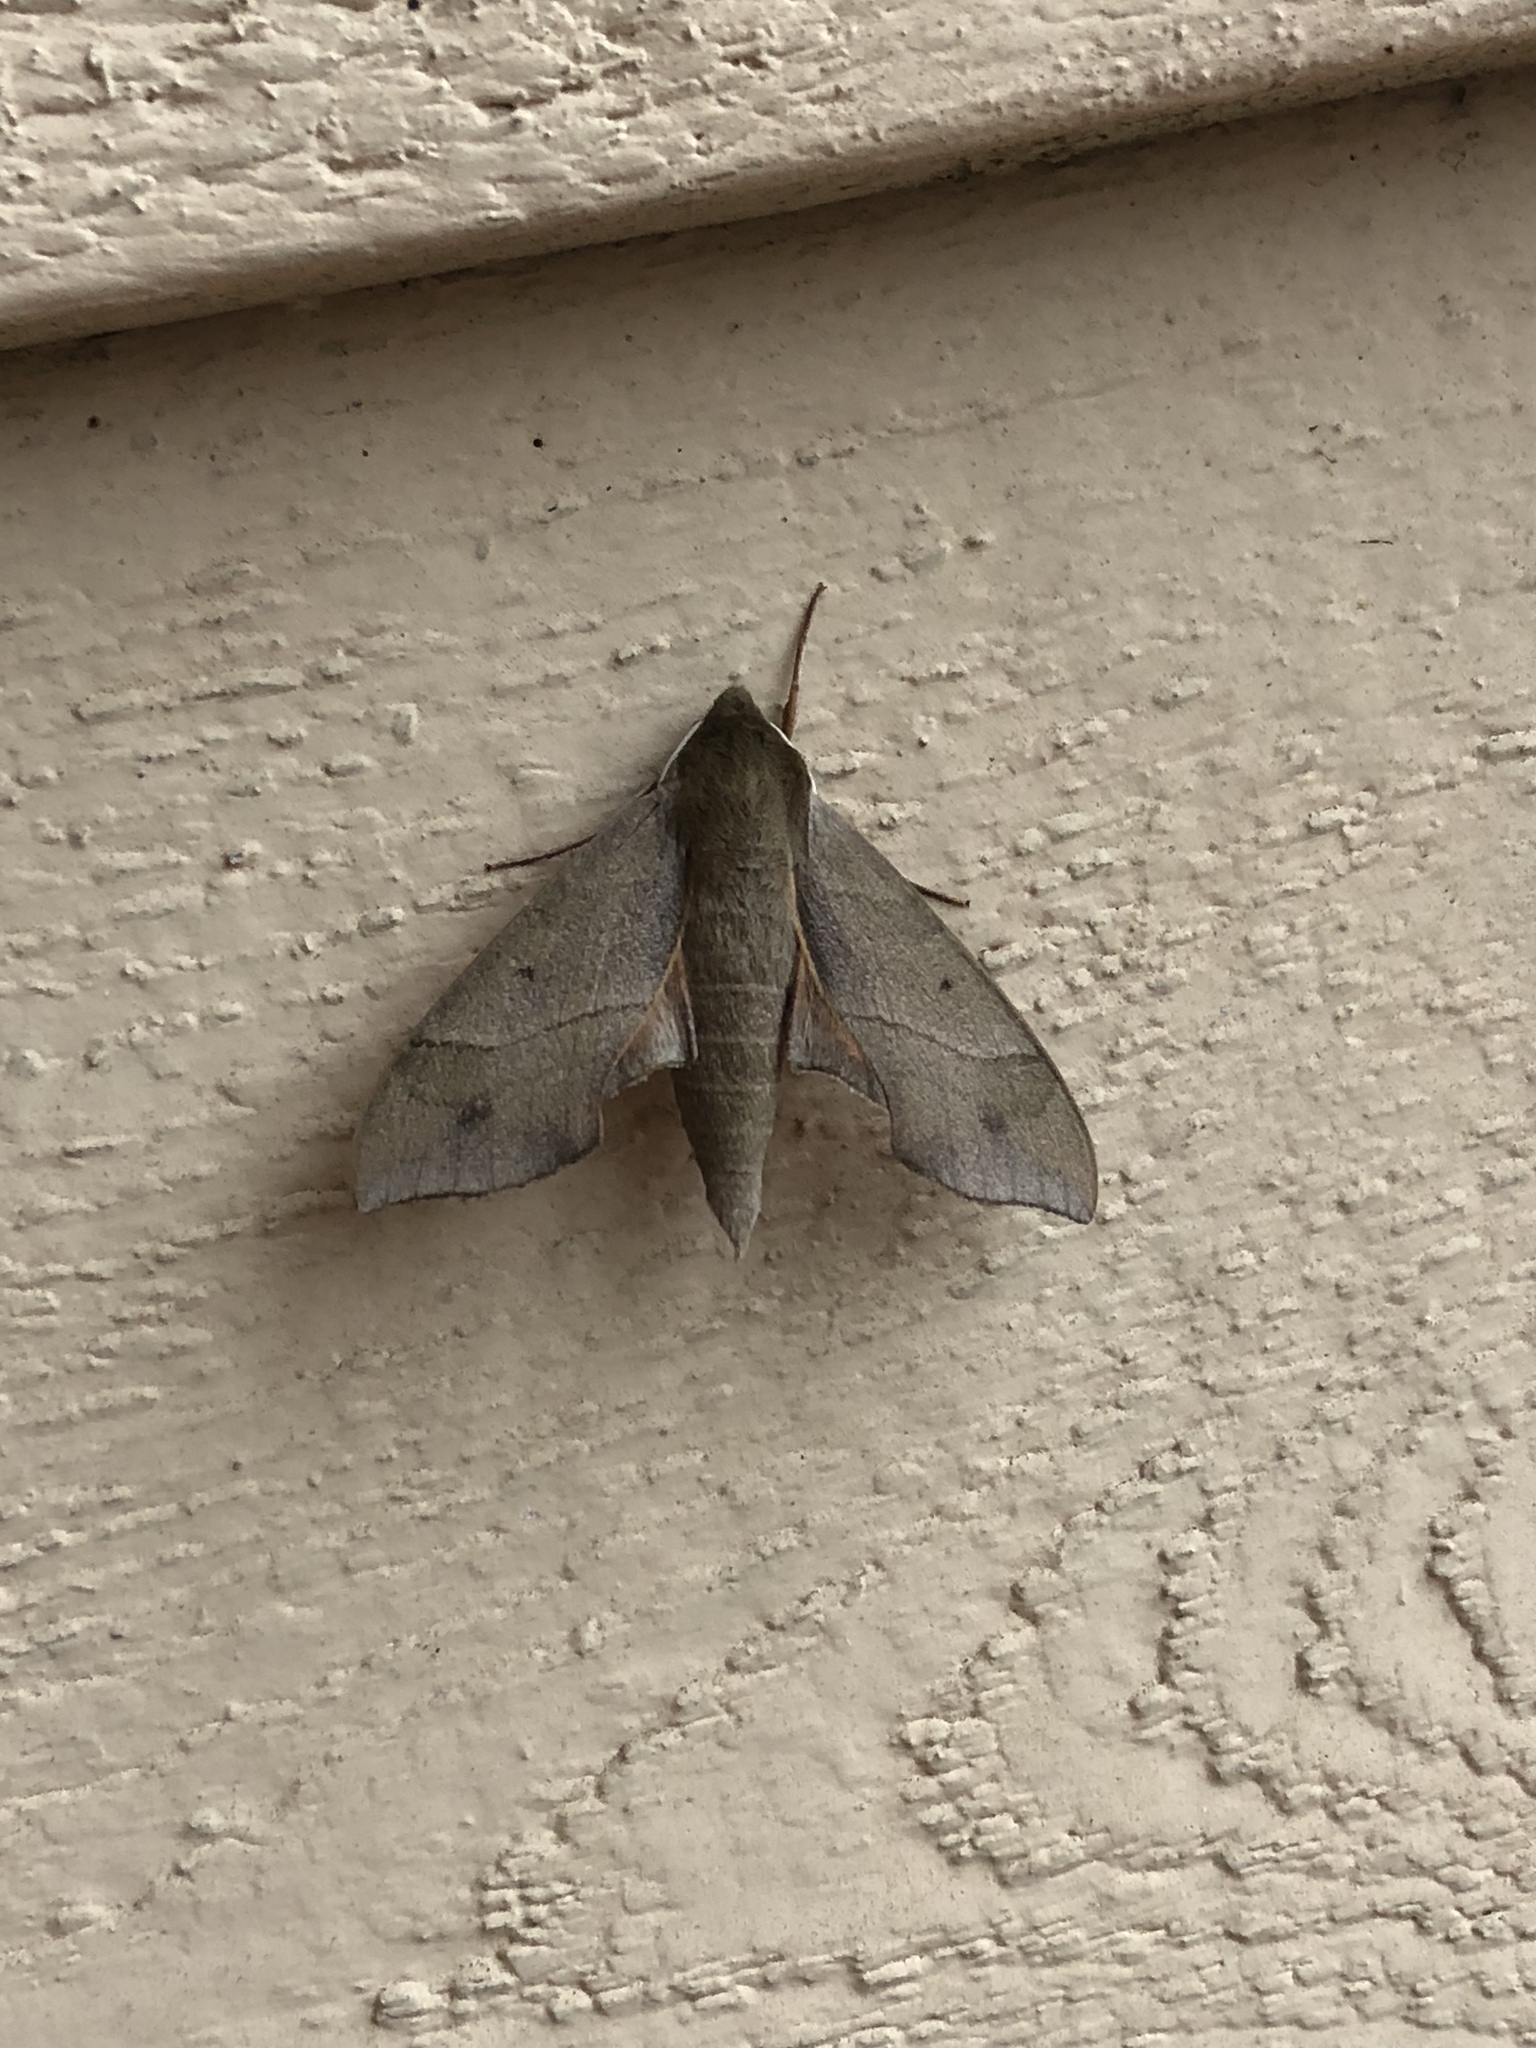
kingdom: Animalia
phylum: Arthropoda
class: Insecta
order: Lepidoptera
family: Sphingidae
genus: Darapsa
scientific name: Darapsa myron
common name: Hog sphinx
